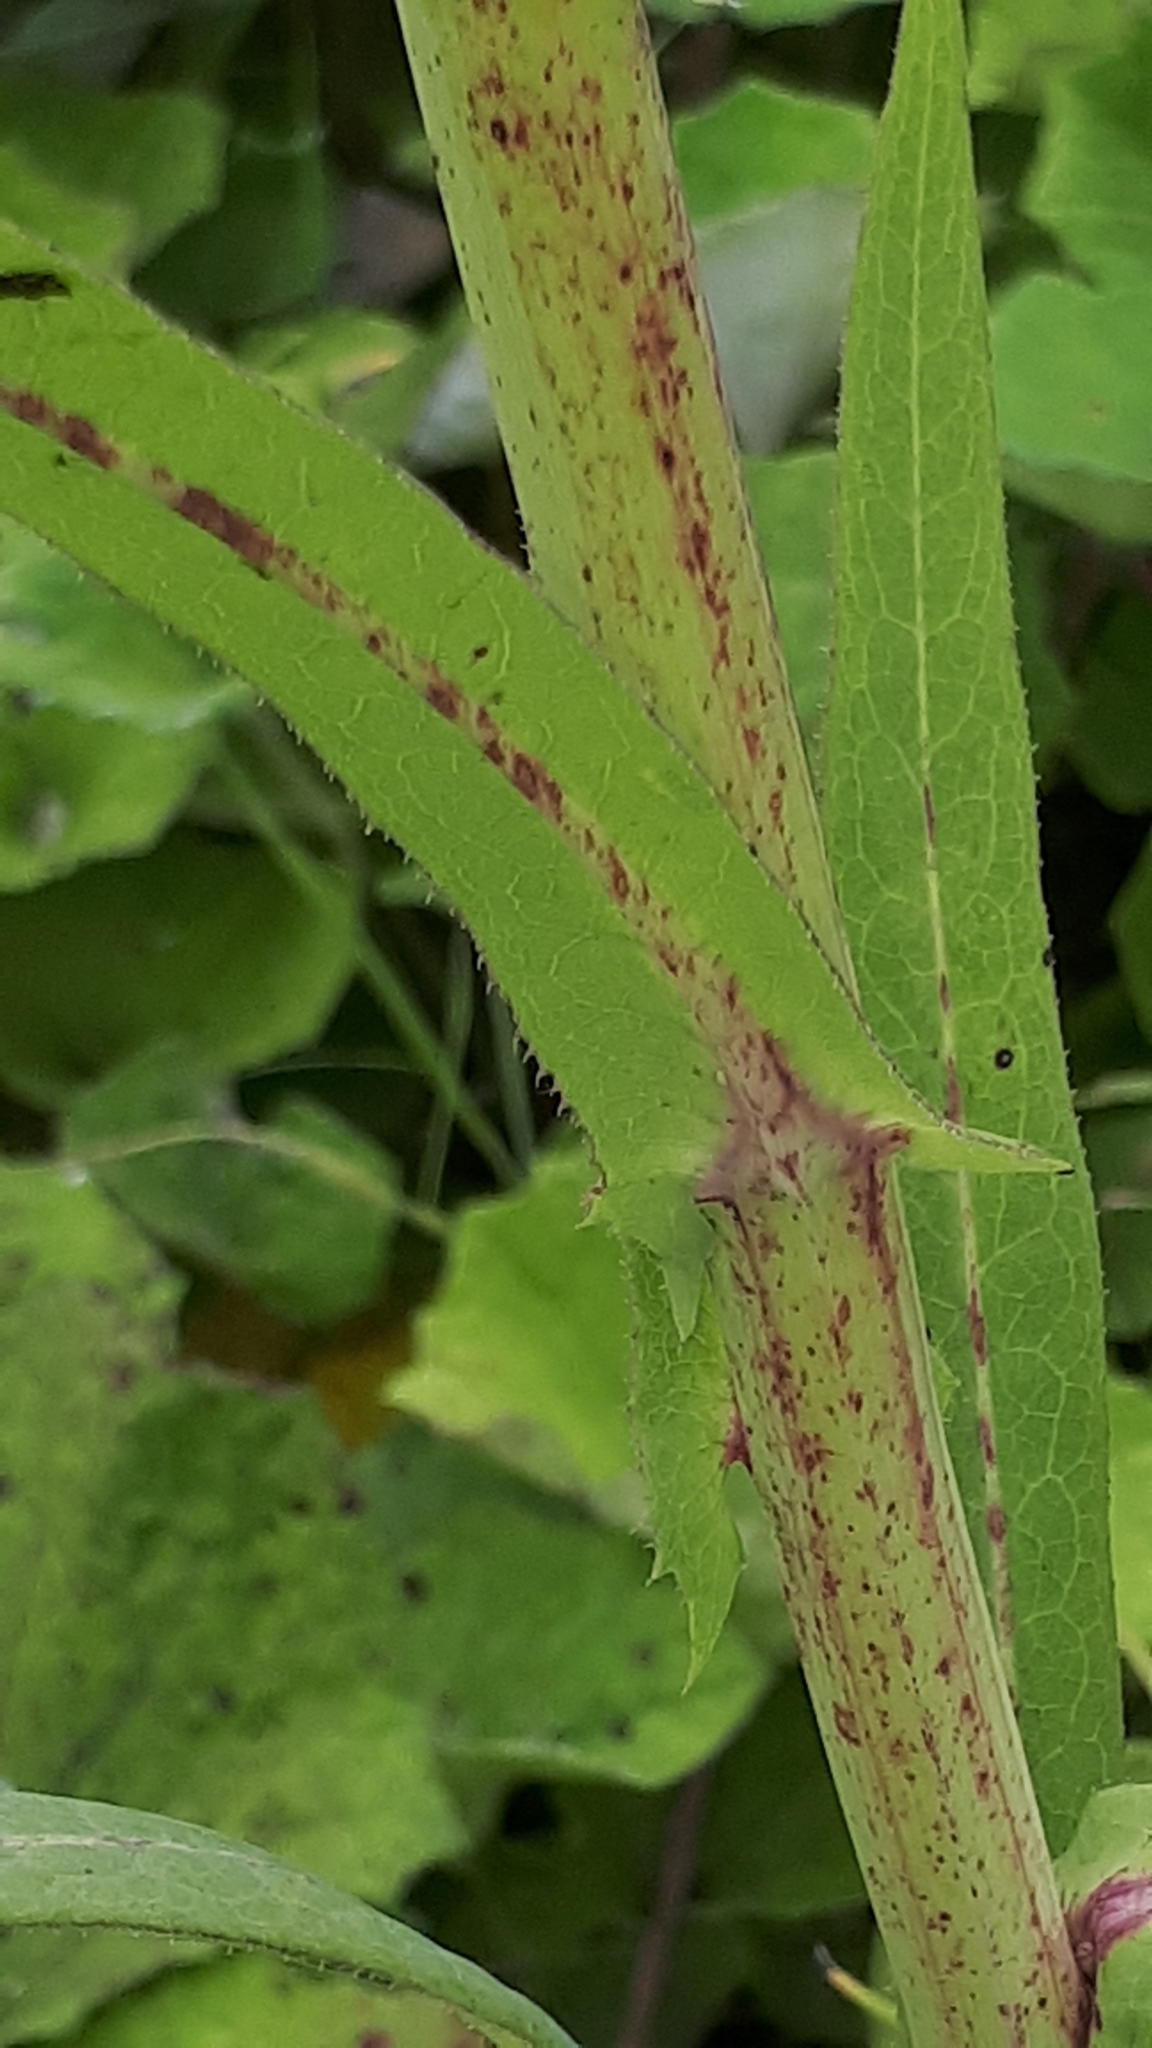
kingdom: Plantae
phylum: Tracheophyta
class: Magnoliopsida
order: Asterales
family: Asteraceae
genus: Sonchus
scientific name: Sonchus palustris
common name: Marsh sow-thistle
